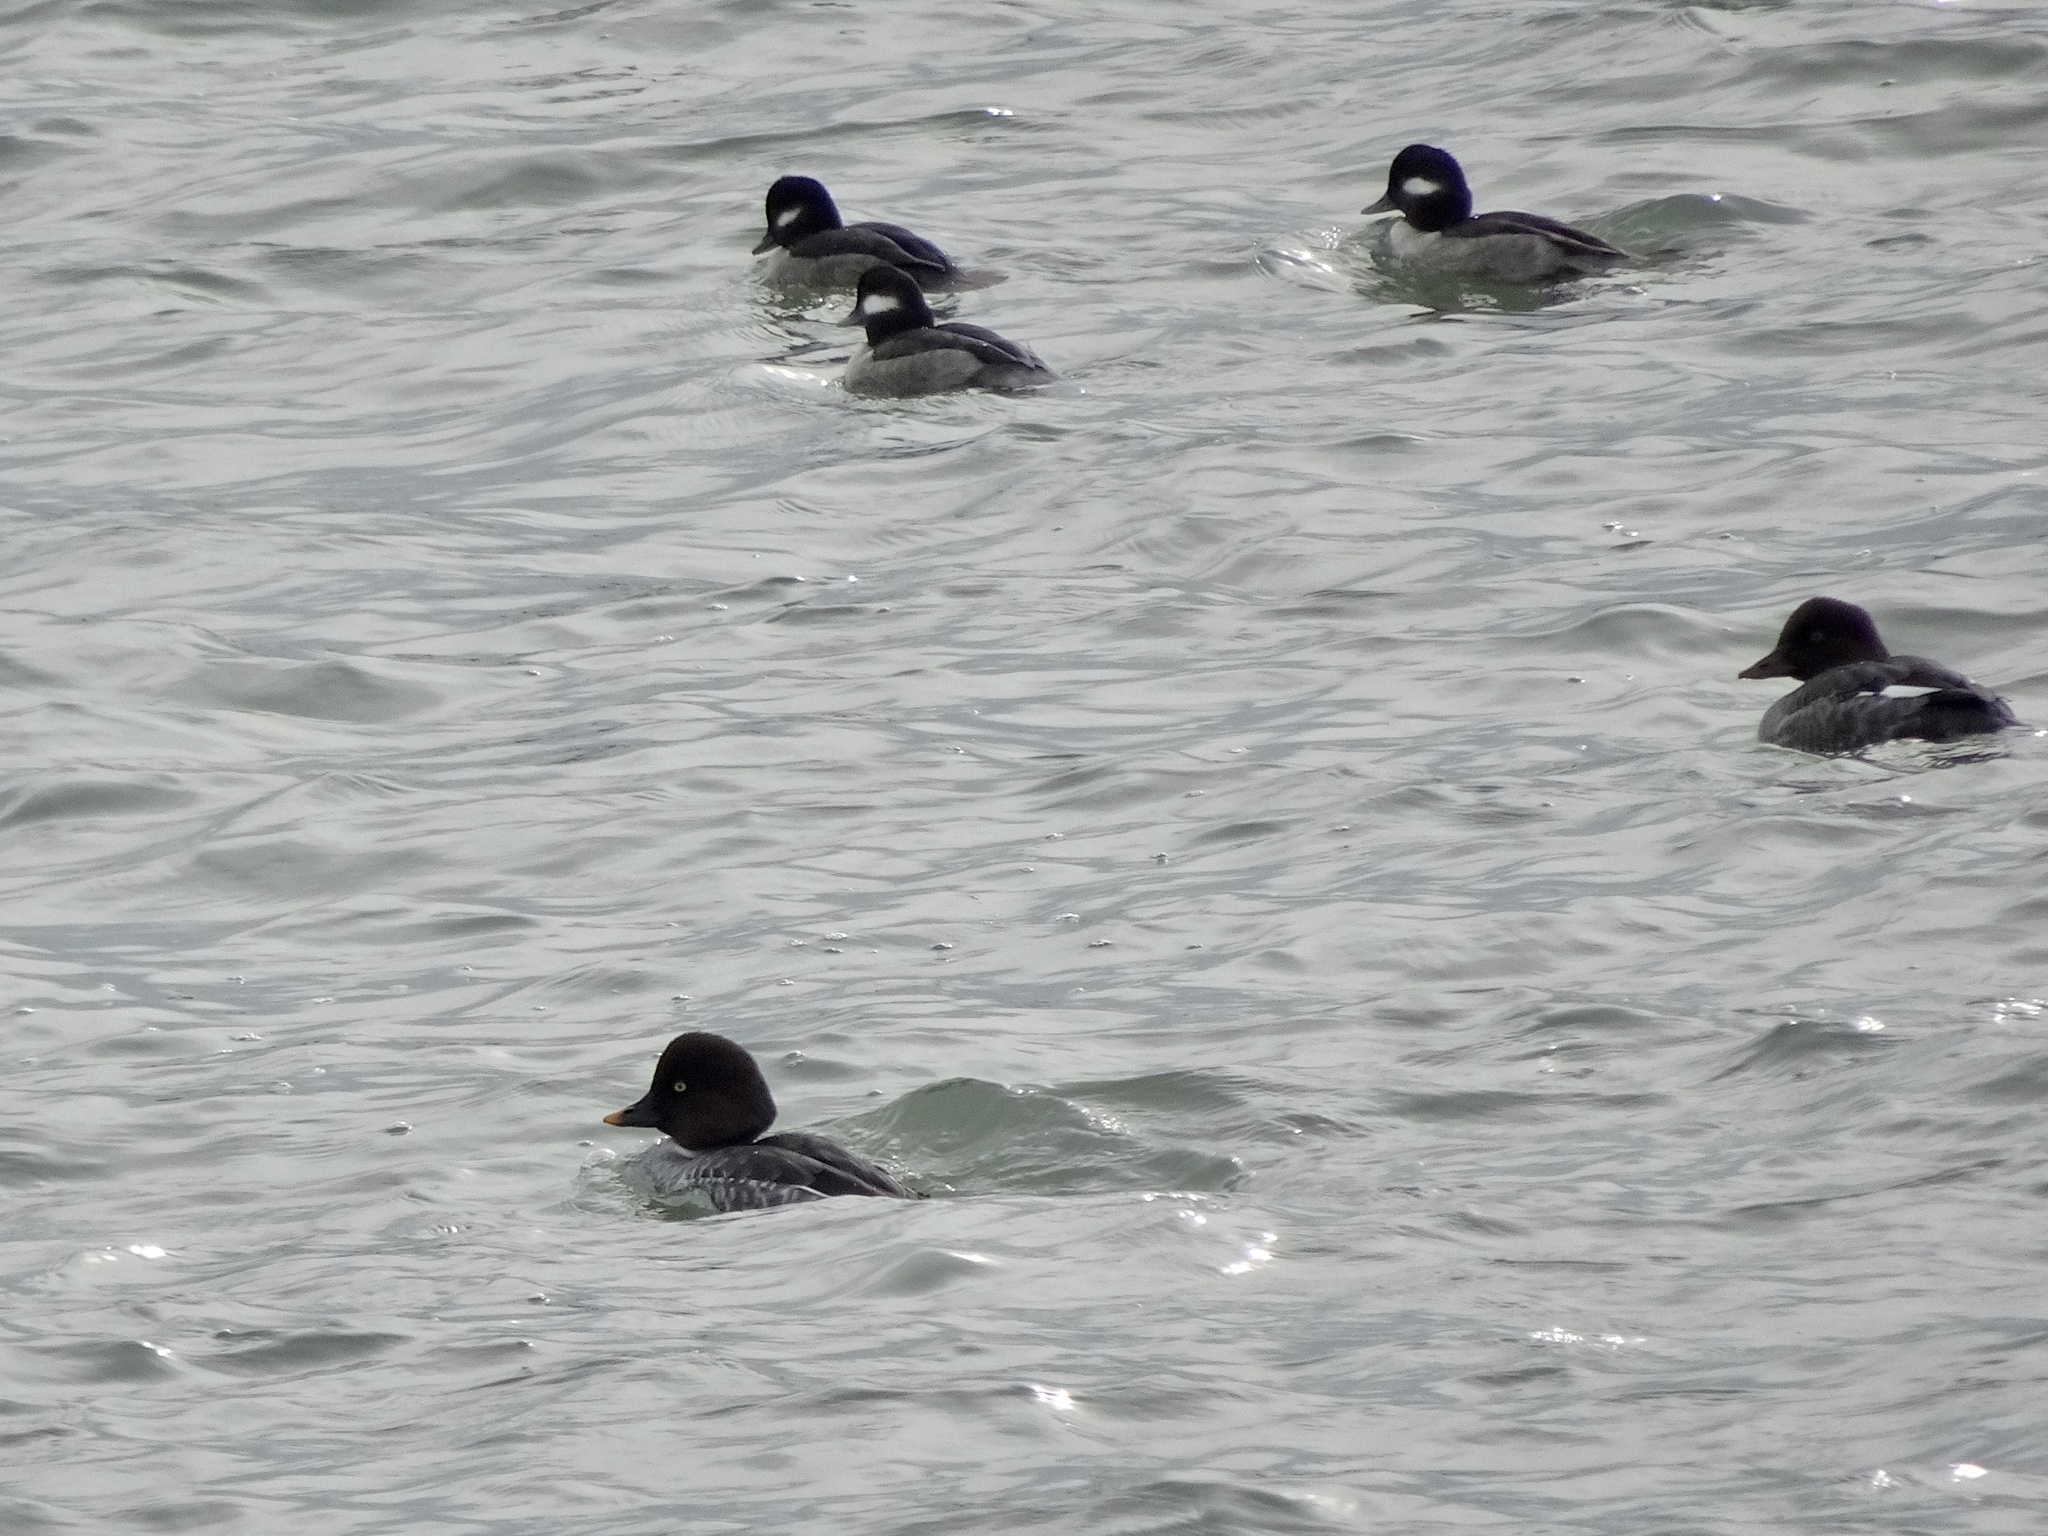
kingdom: Animalia
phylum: Chordata
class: Aves
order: Anseriformes
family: Anatidae
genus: Bucephala
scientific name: Bucephala clangula
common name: Common goldeneye
